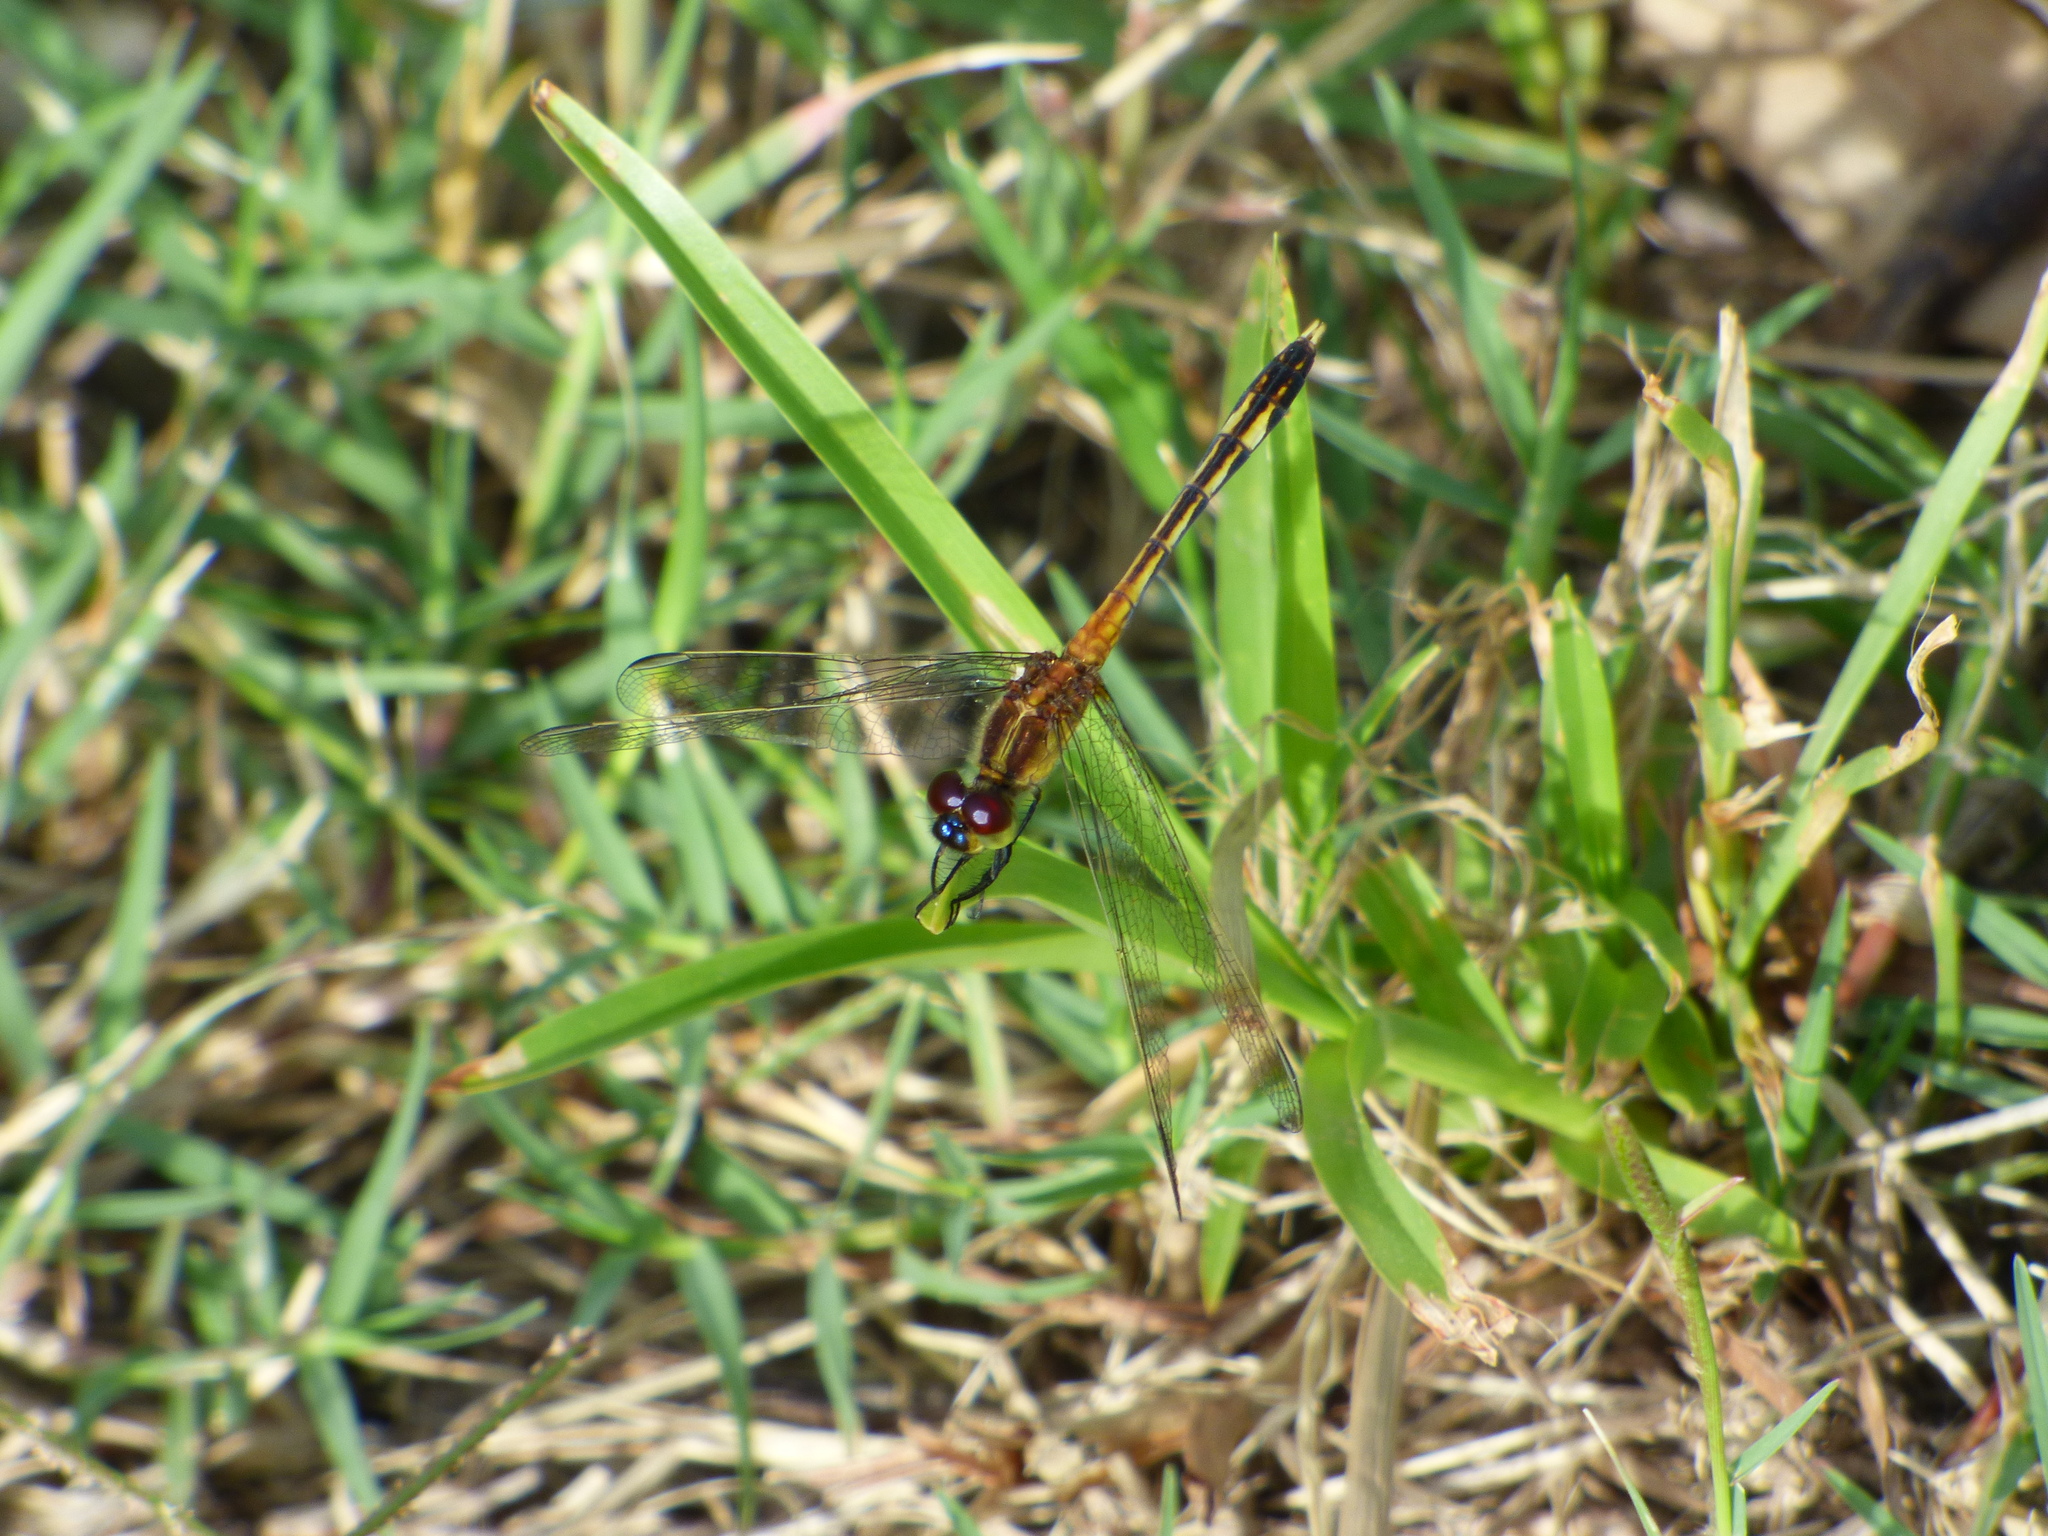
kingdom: Animalia
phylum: Arthropoda
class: Insecta
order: Odonata
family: Libellulidae
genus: Erythrodiplax
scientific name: Erythrodiplax nigricans
